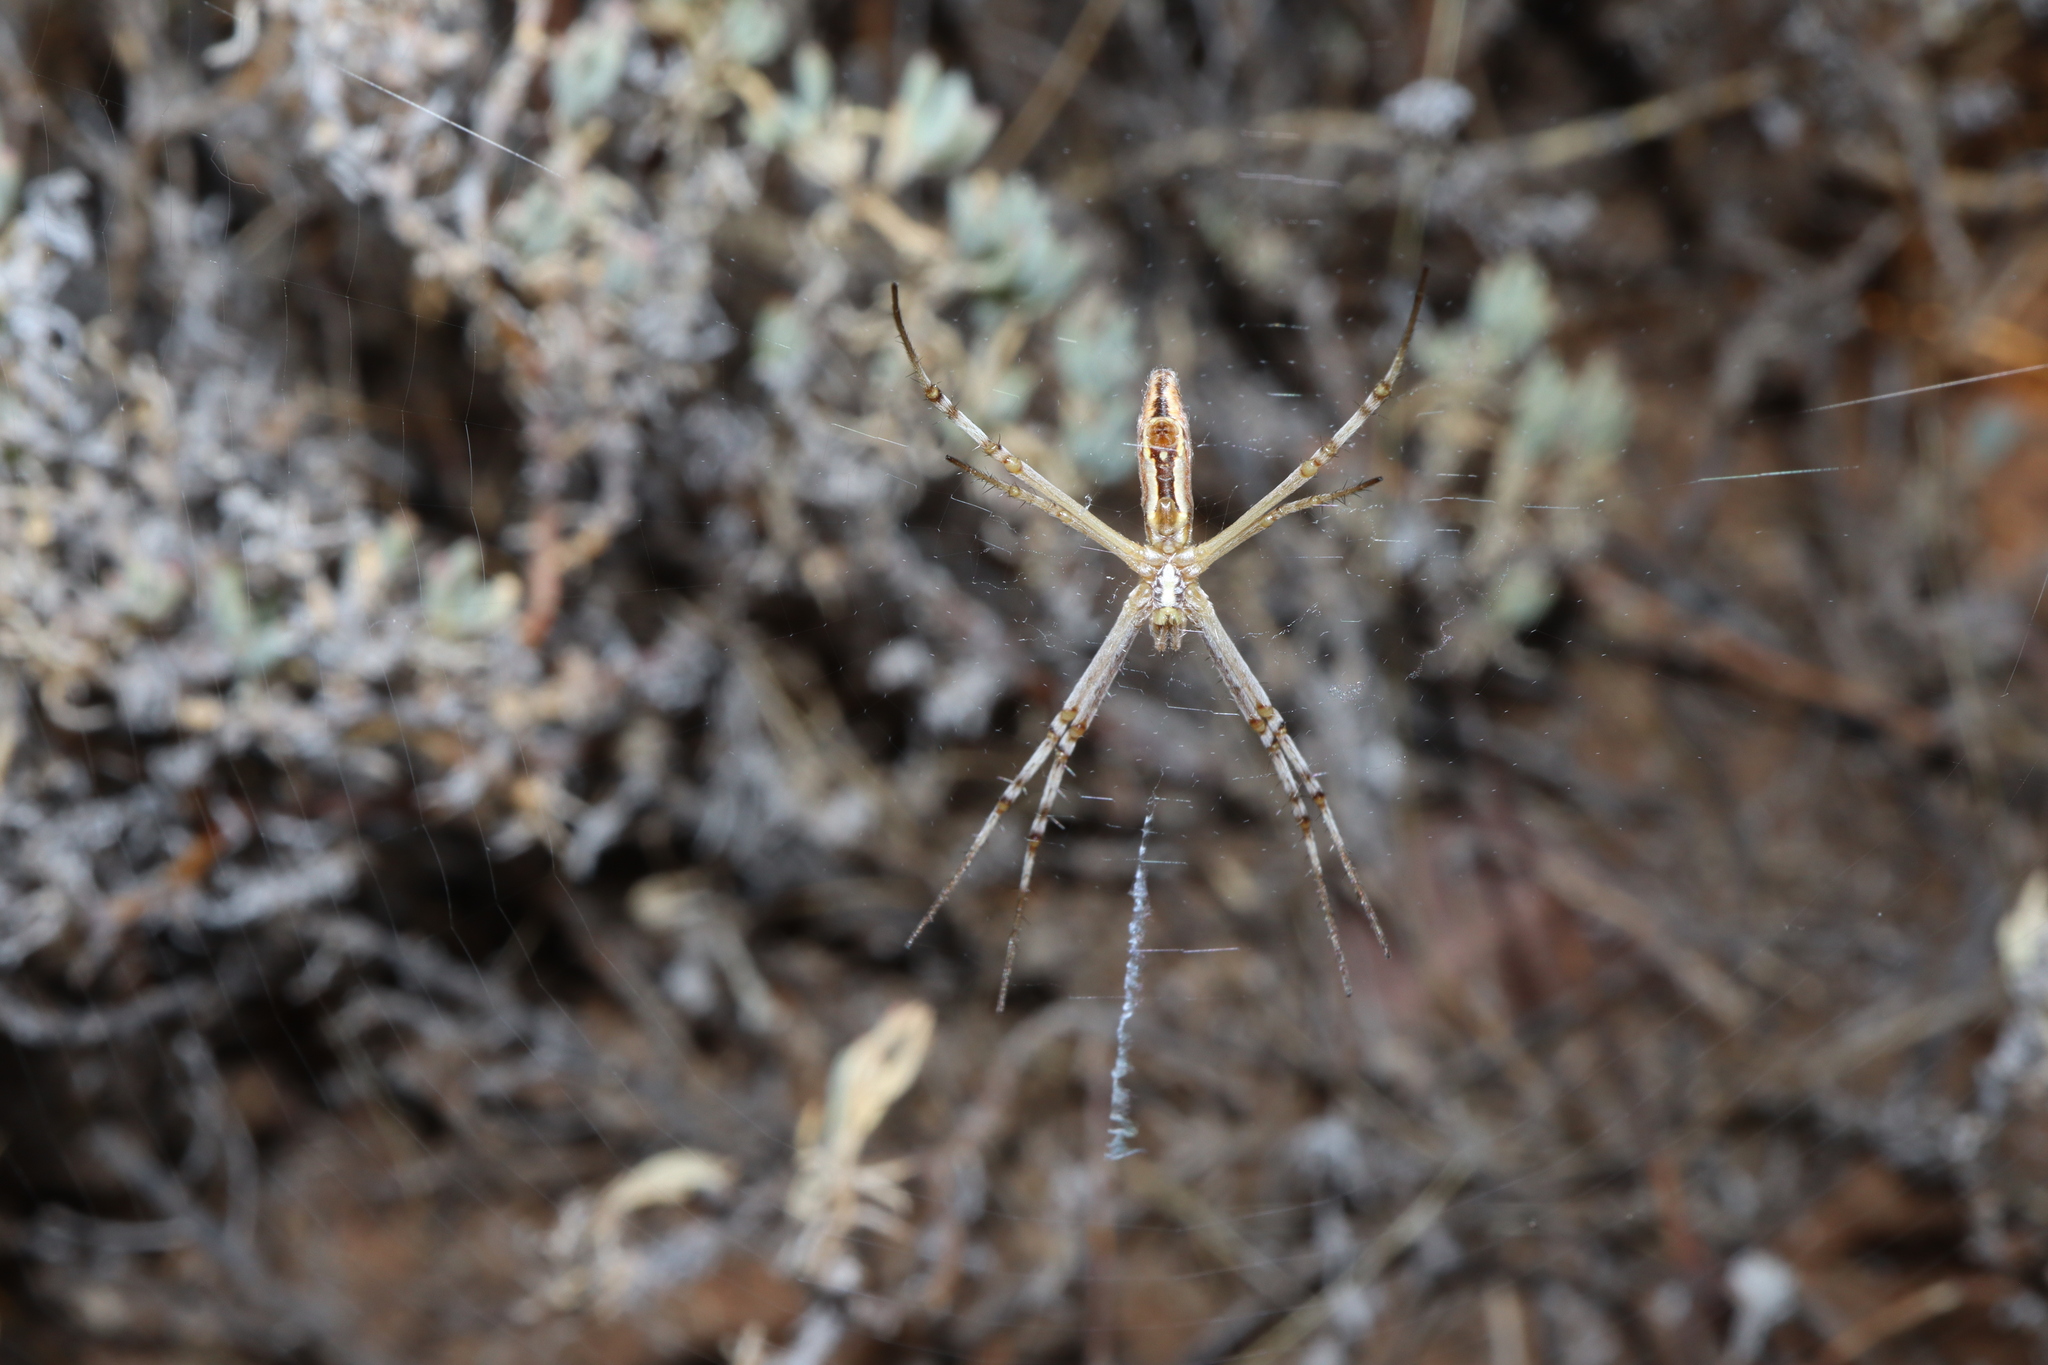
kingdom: Animalia
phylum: Arthropoda
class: Arachnida
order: Araneae
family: Araneidae
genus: Argiope
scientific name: Argiope protensa
